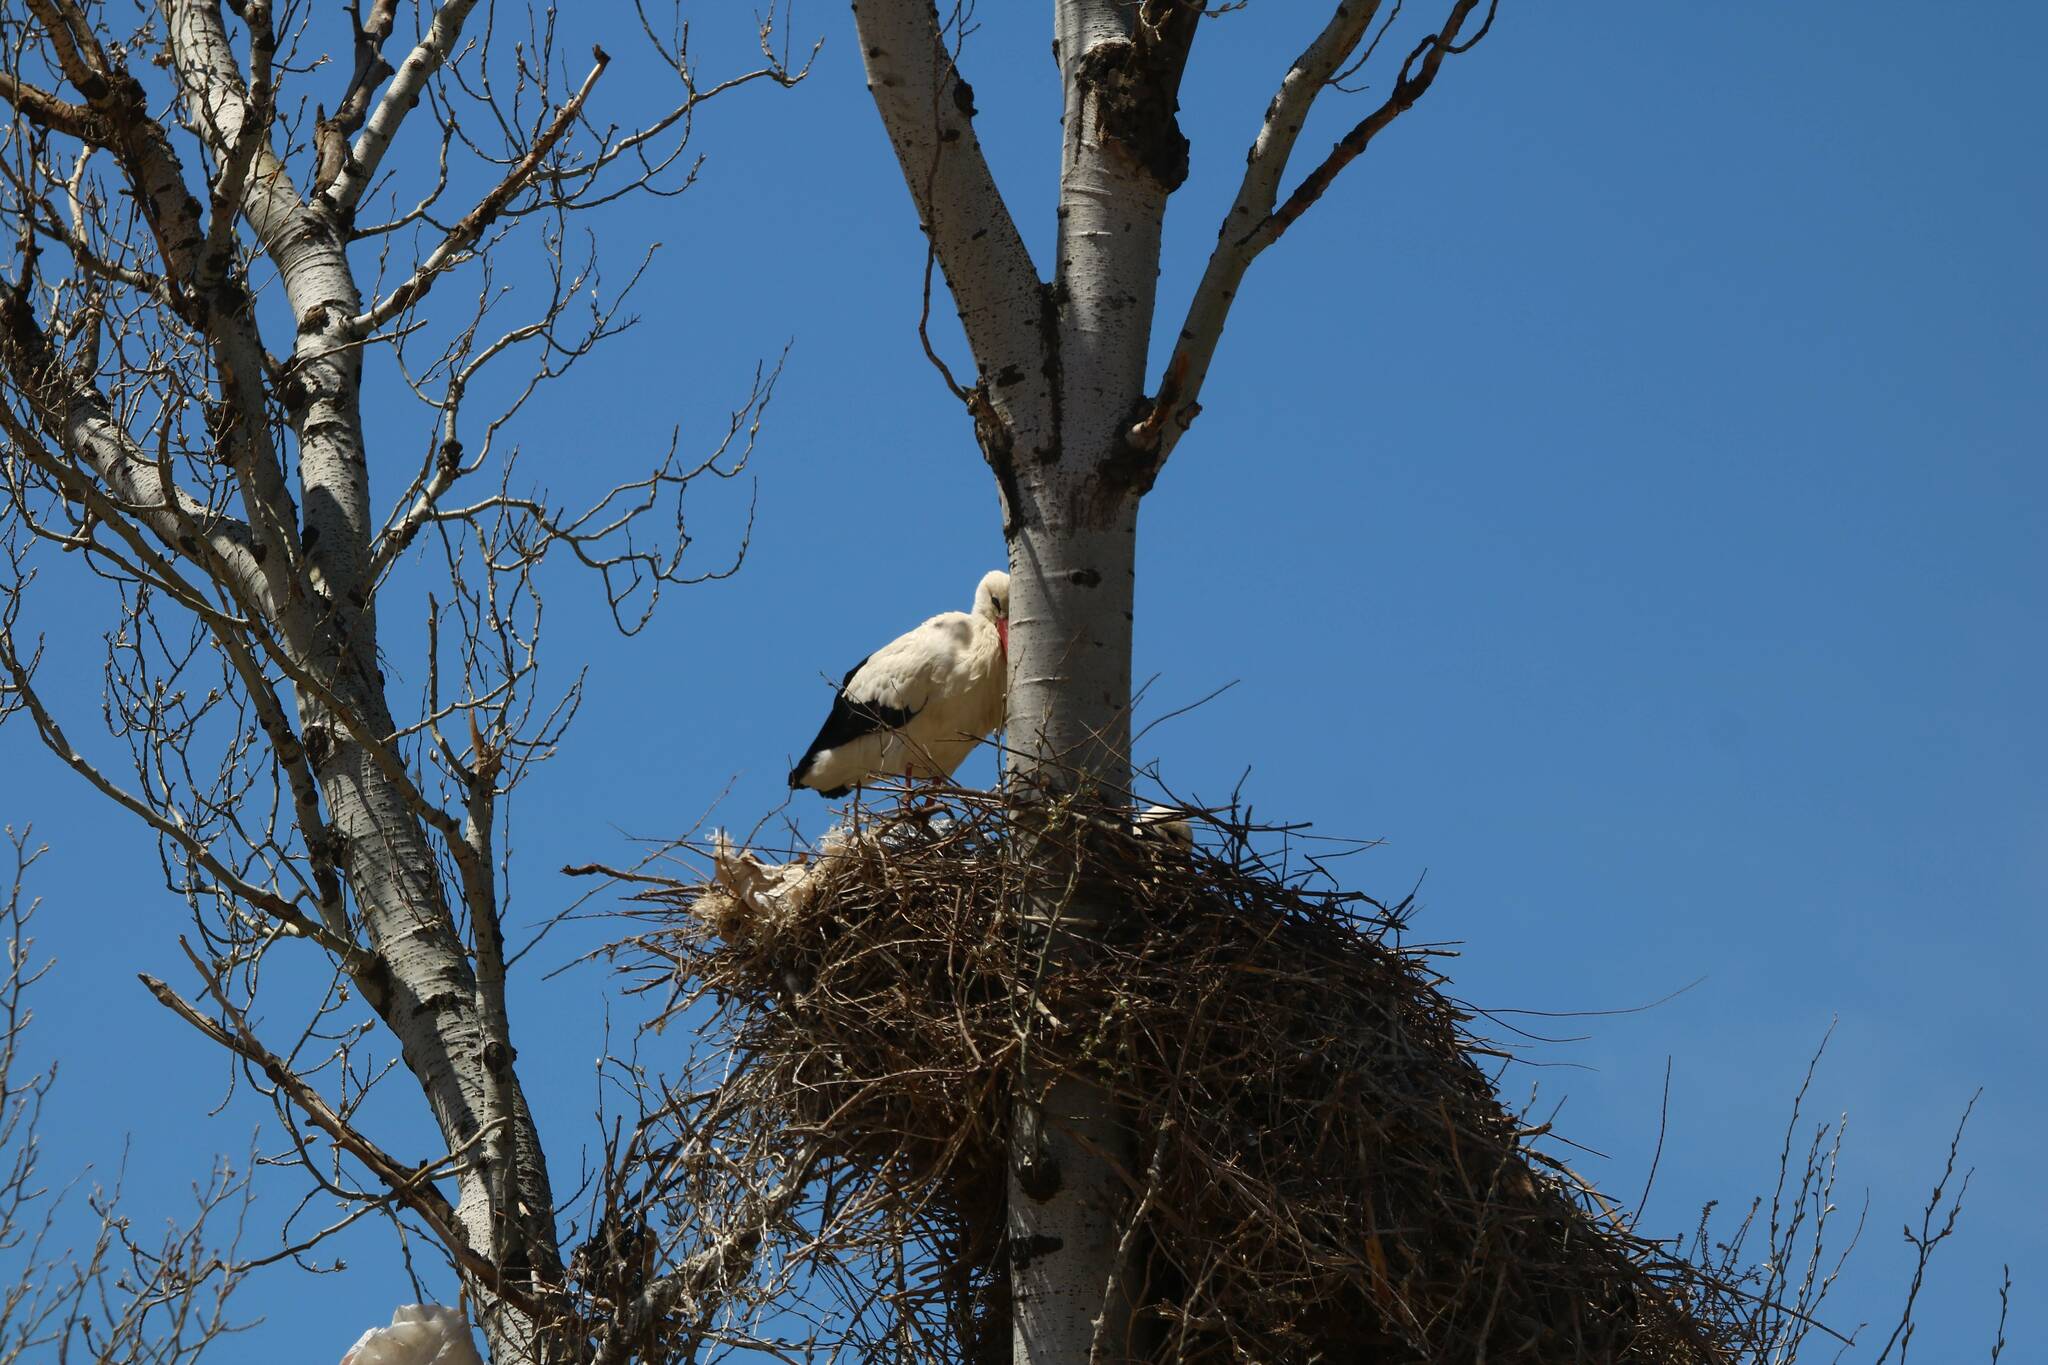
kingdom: Animalia
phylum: Chordata
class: Aves
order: Ciconiiformes
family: Ciconiidae
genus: Ciconia
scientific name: Ciconia ciconia
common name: White stork
